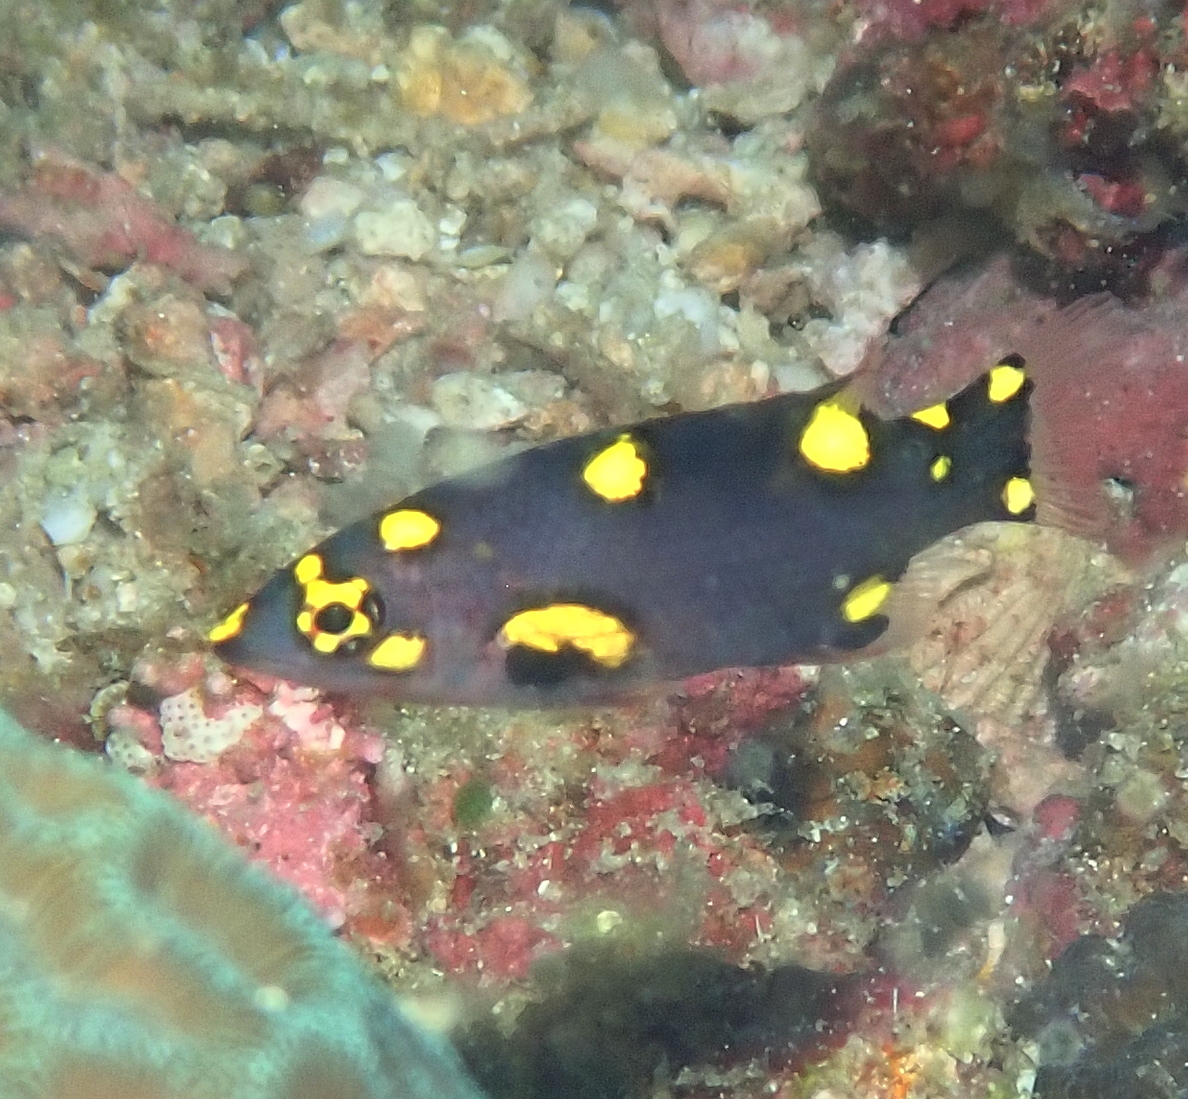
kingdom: Animalia
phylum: Chordata
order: Perciformes
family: Labridae
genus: Bodianus
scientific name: Bodianus mesothorax
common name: Coral hogfish
